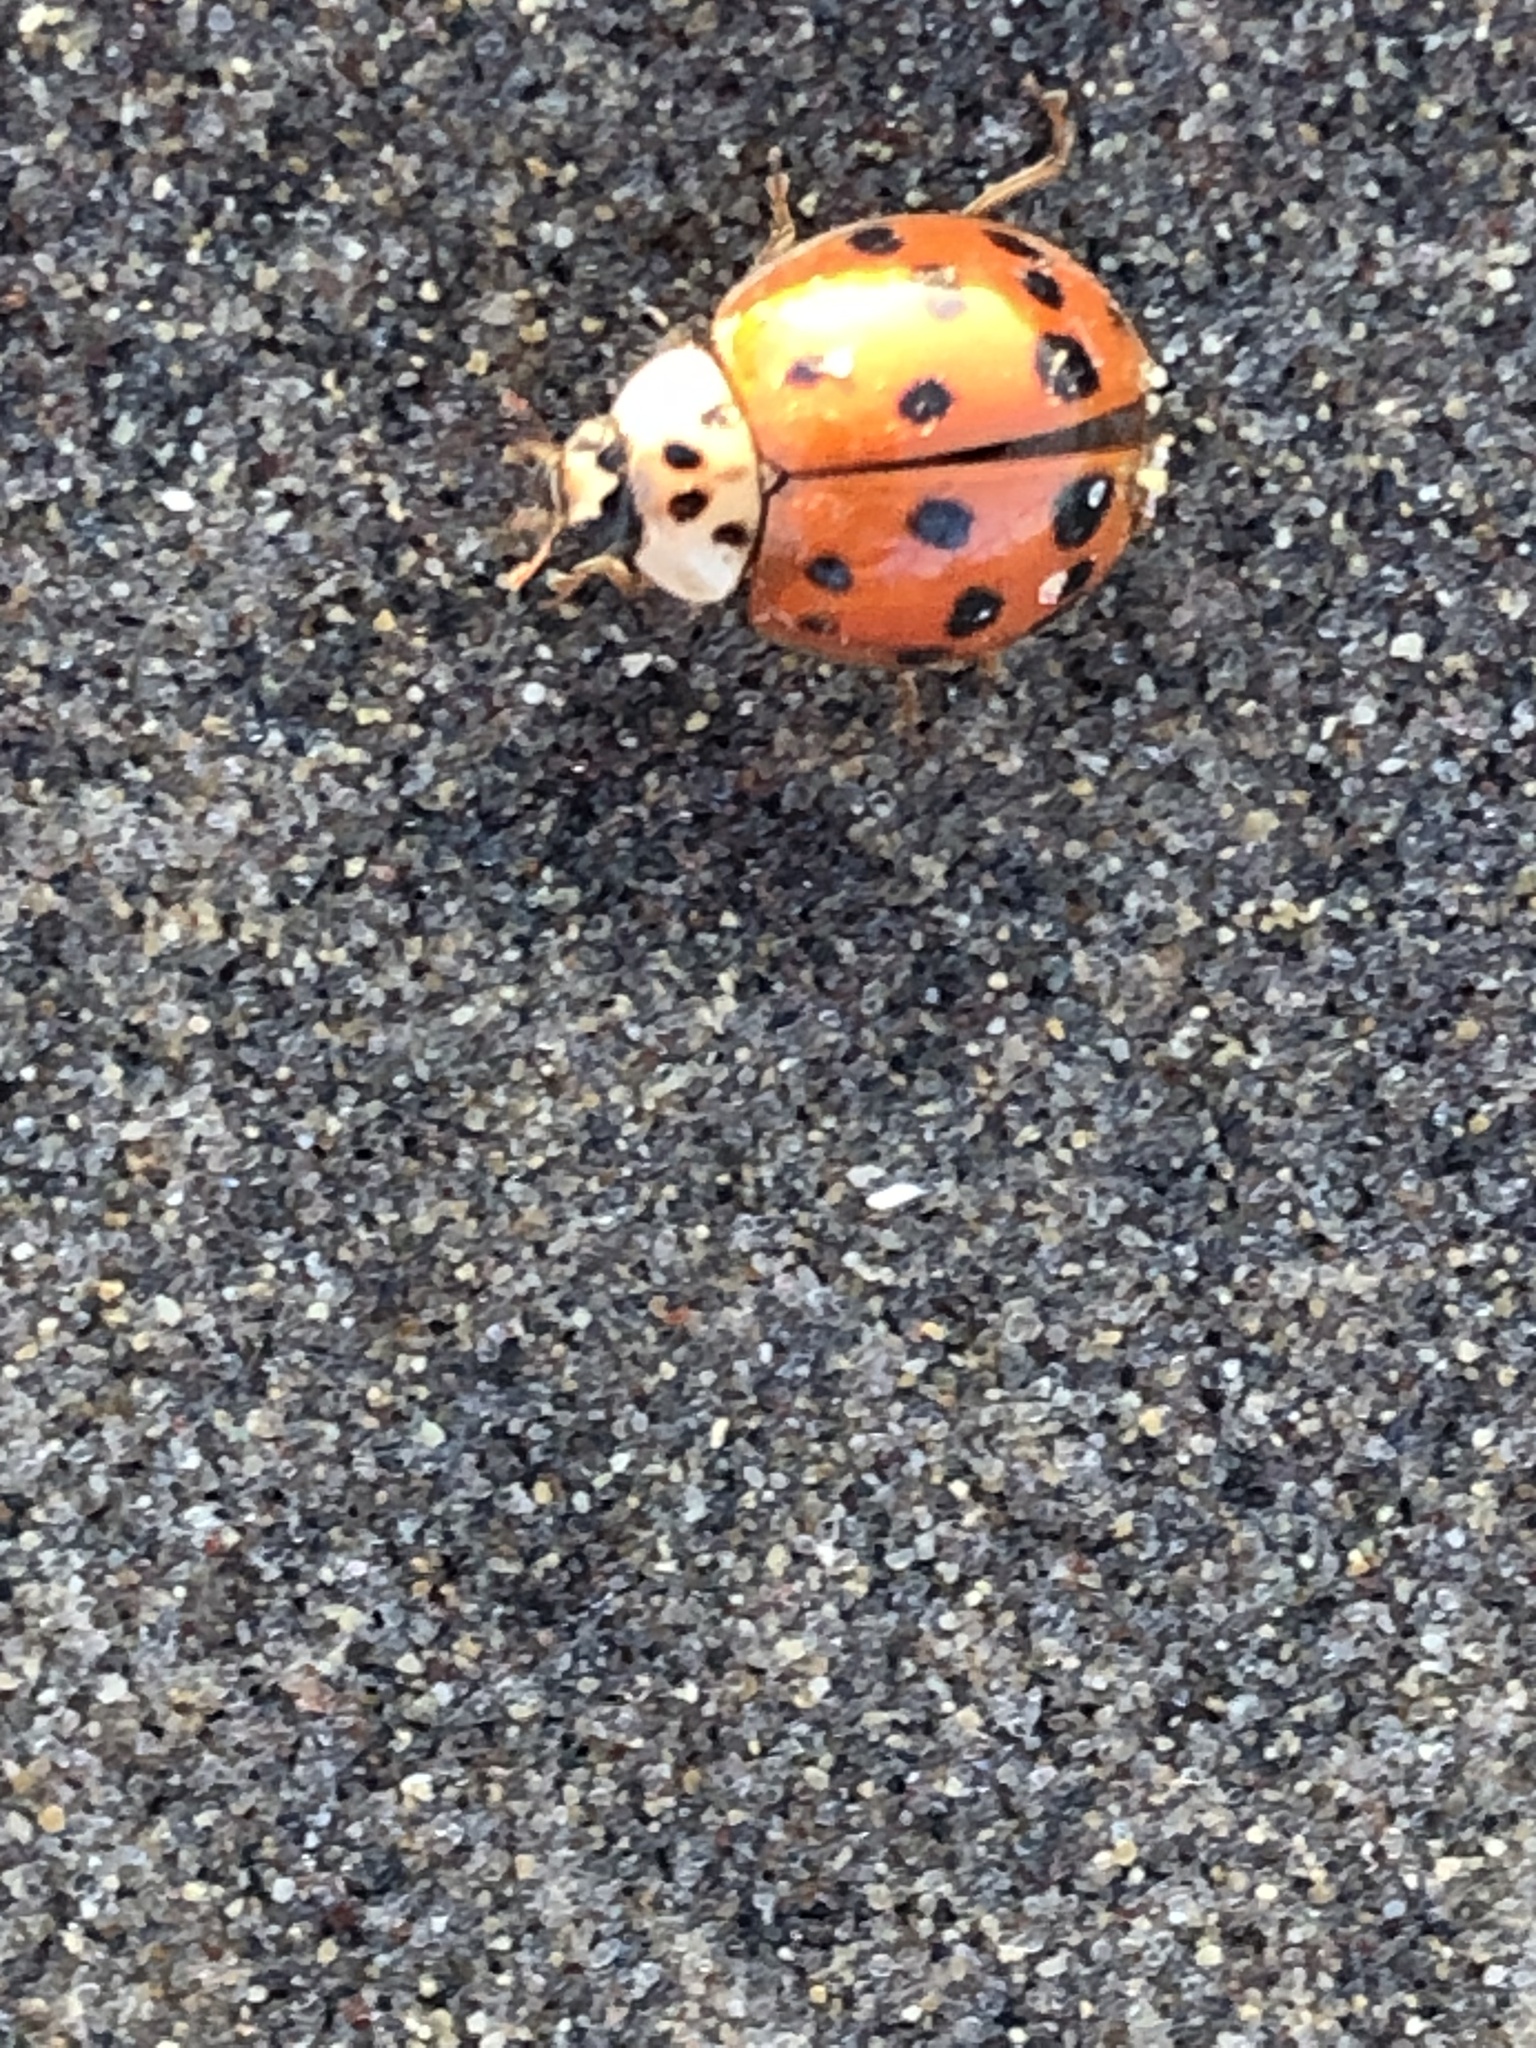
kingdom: Animalia
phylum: Arthropoda
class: Insecta
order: Coleoptera
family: Coccinellidae
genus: Harmonia
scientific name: Harmonia axyridis
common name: Harlequin ladybird
